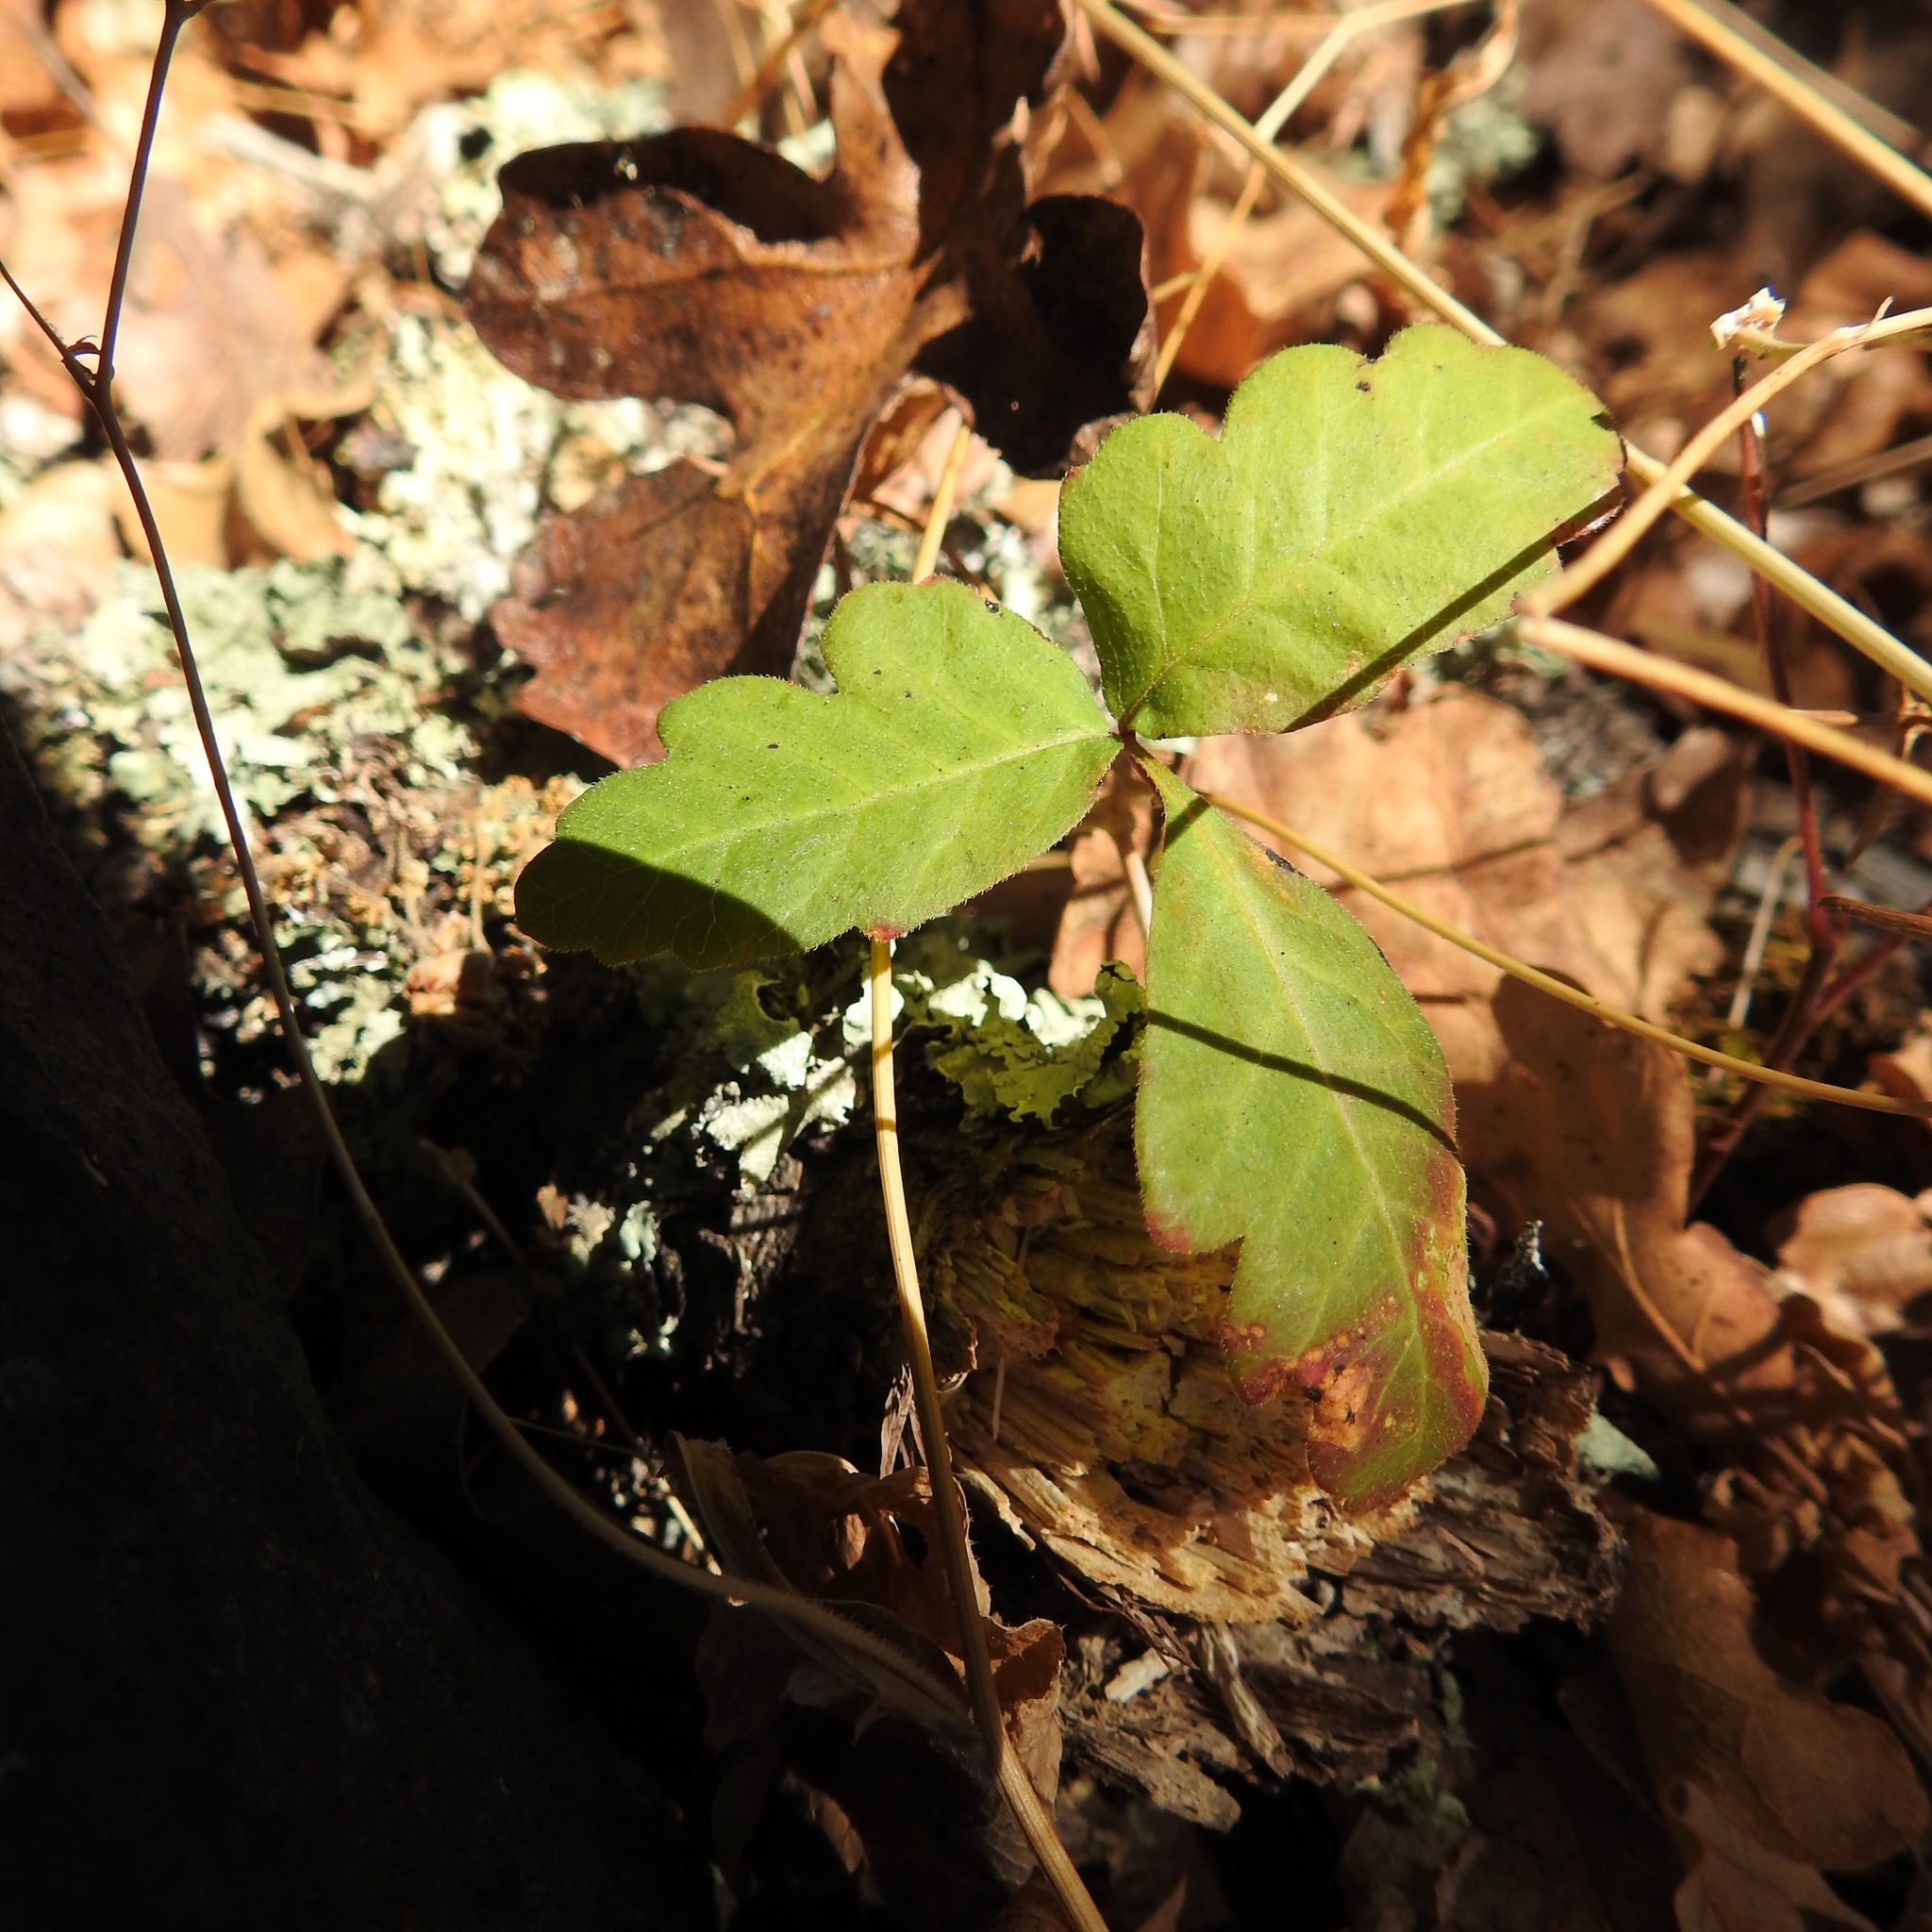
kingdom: Plantae
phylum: Tracheophyta
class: Magnoliopsida
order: Sapindales
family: Anacardiaceae
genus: Toxicodendron
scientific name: Toxicodendron diversilobum
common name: Pacific poison-oak
